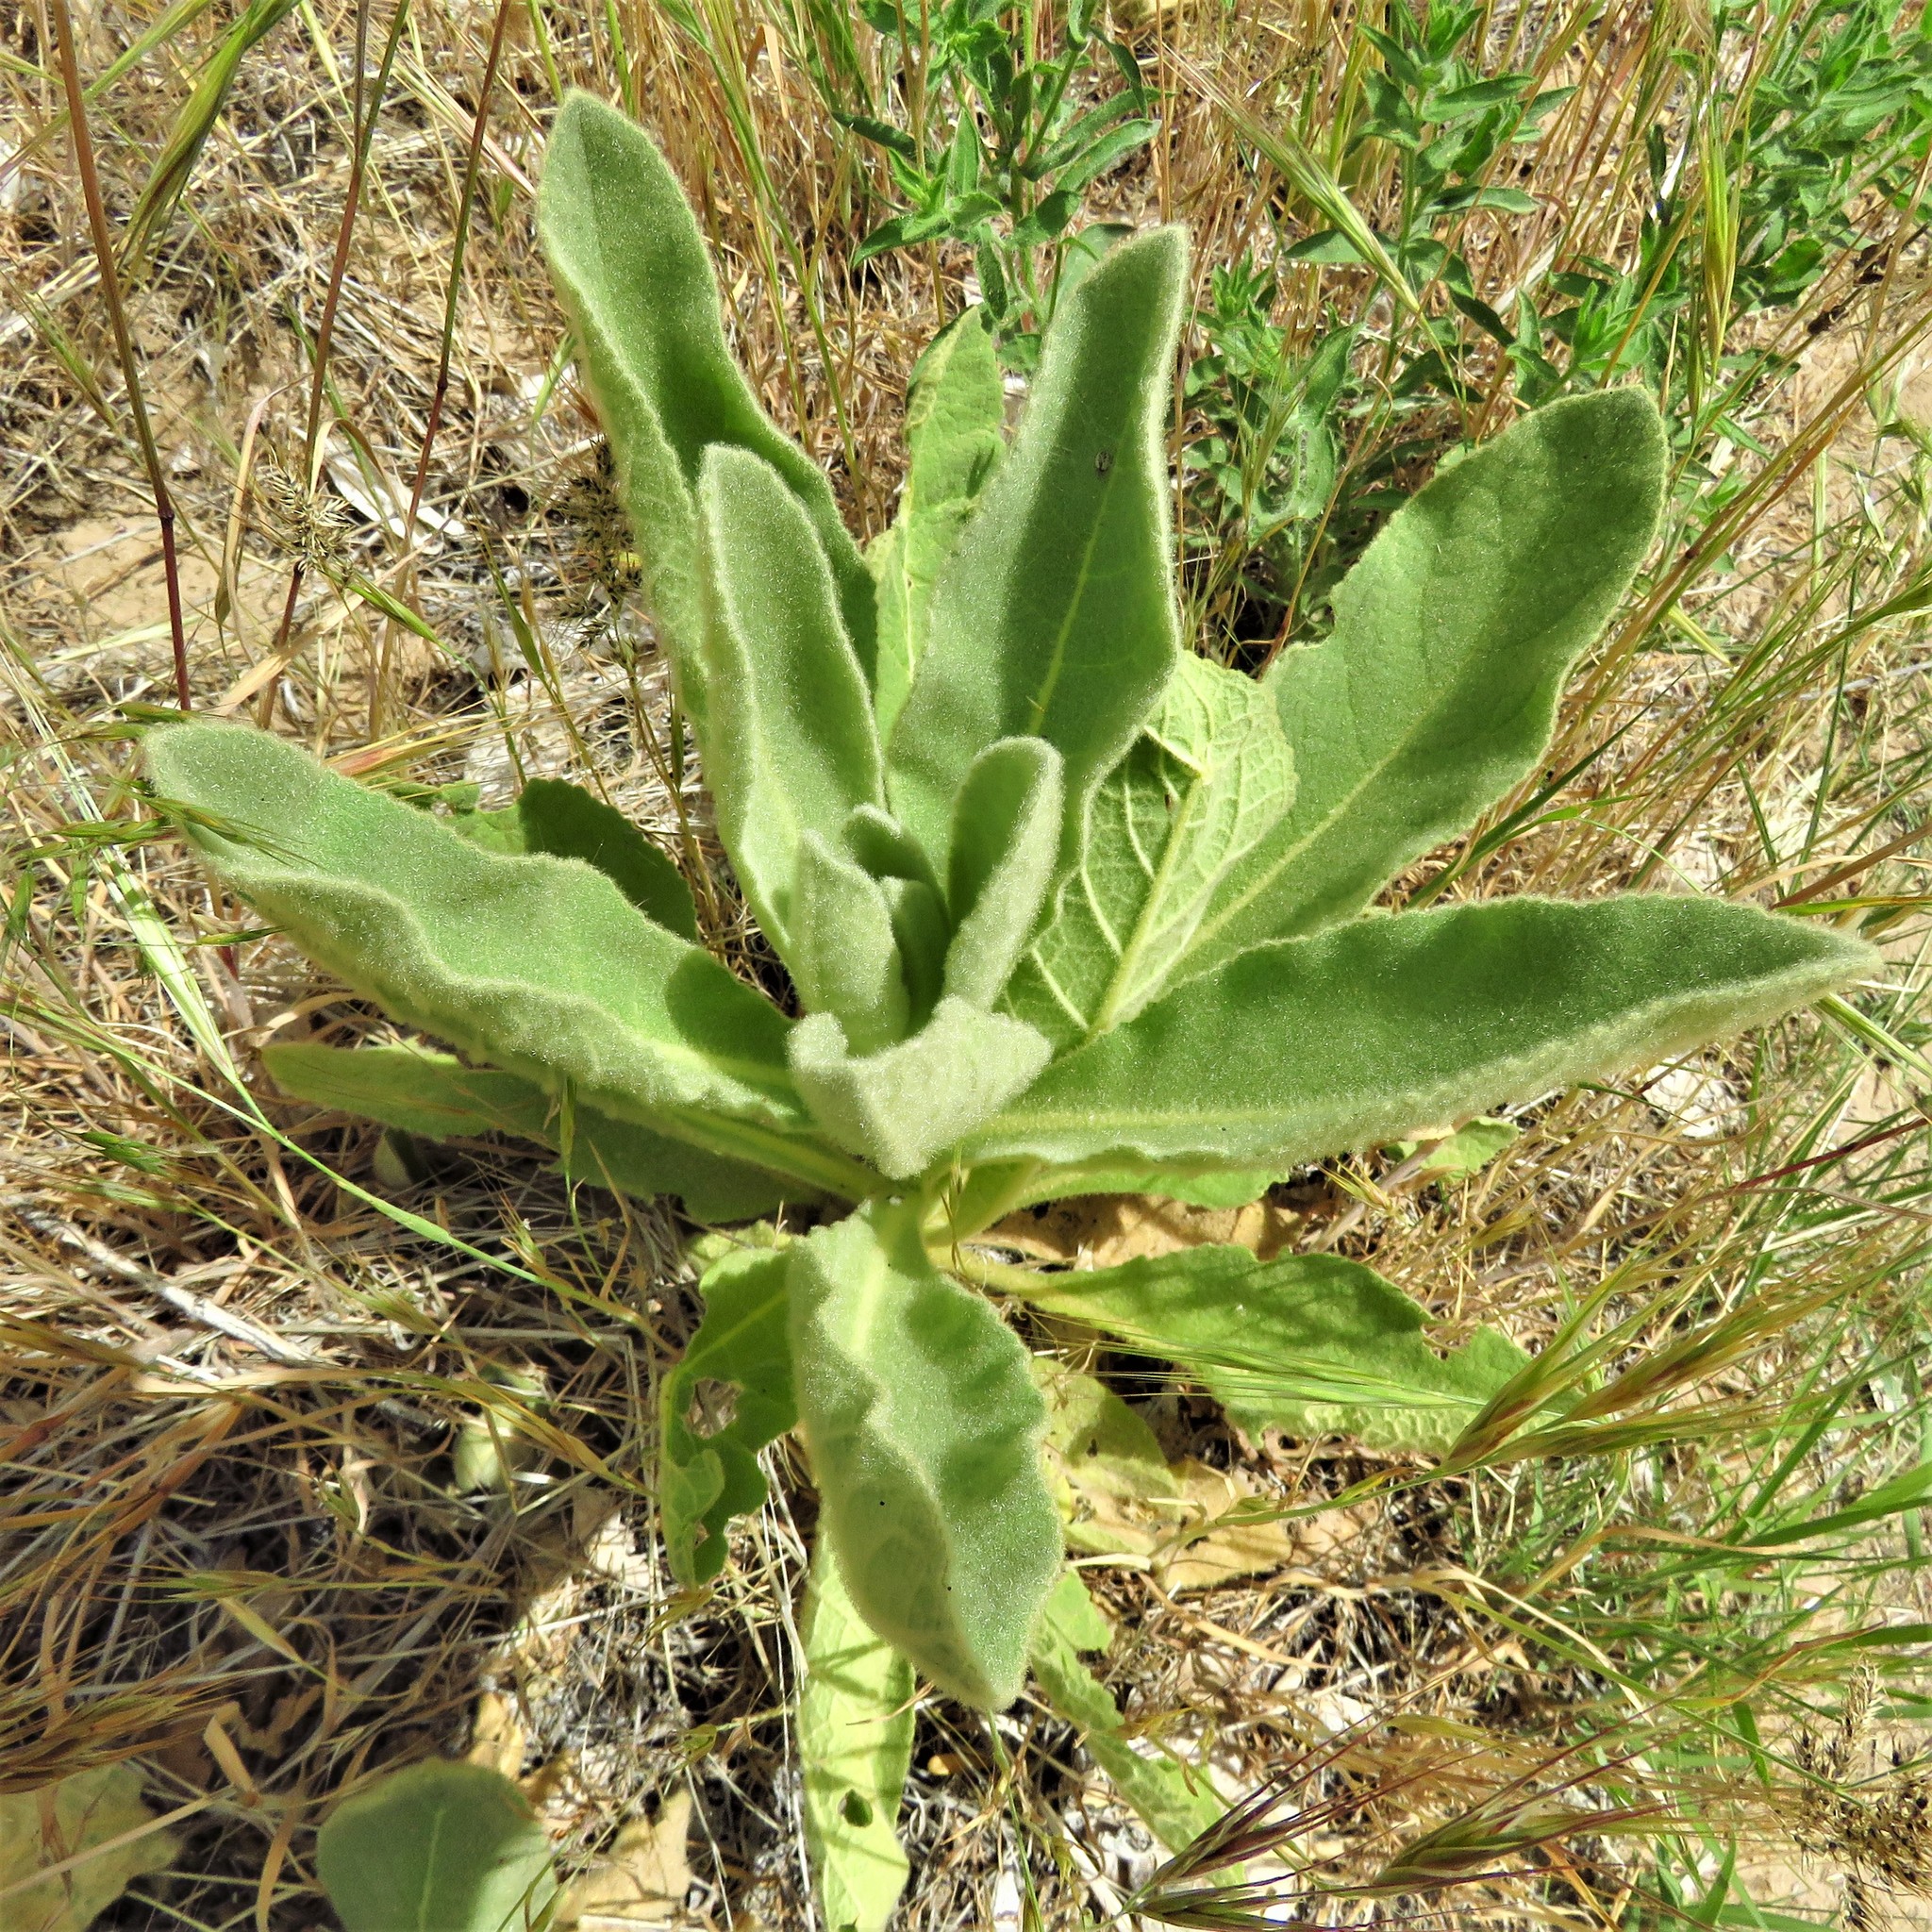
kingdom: Plantae
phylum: Tracheophyta
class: Magnoliopsida
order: Lamiales
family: Scrophulariaceae
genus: Verbascum
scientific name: Verbascum thapsus
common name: Common mullein
